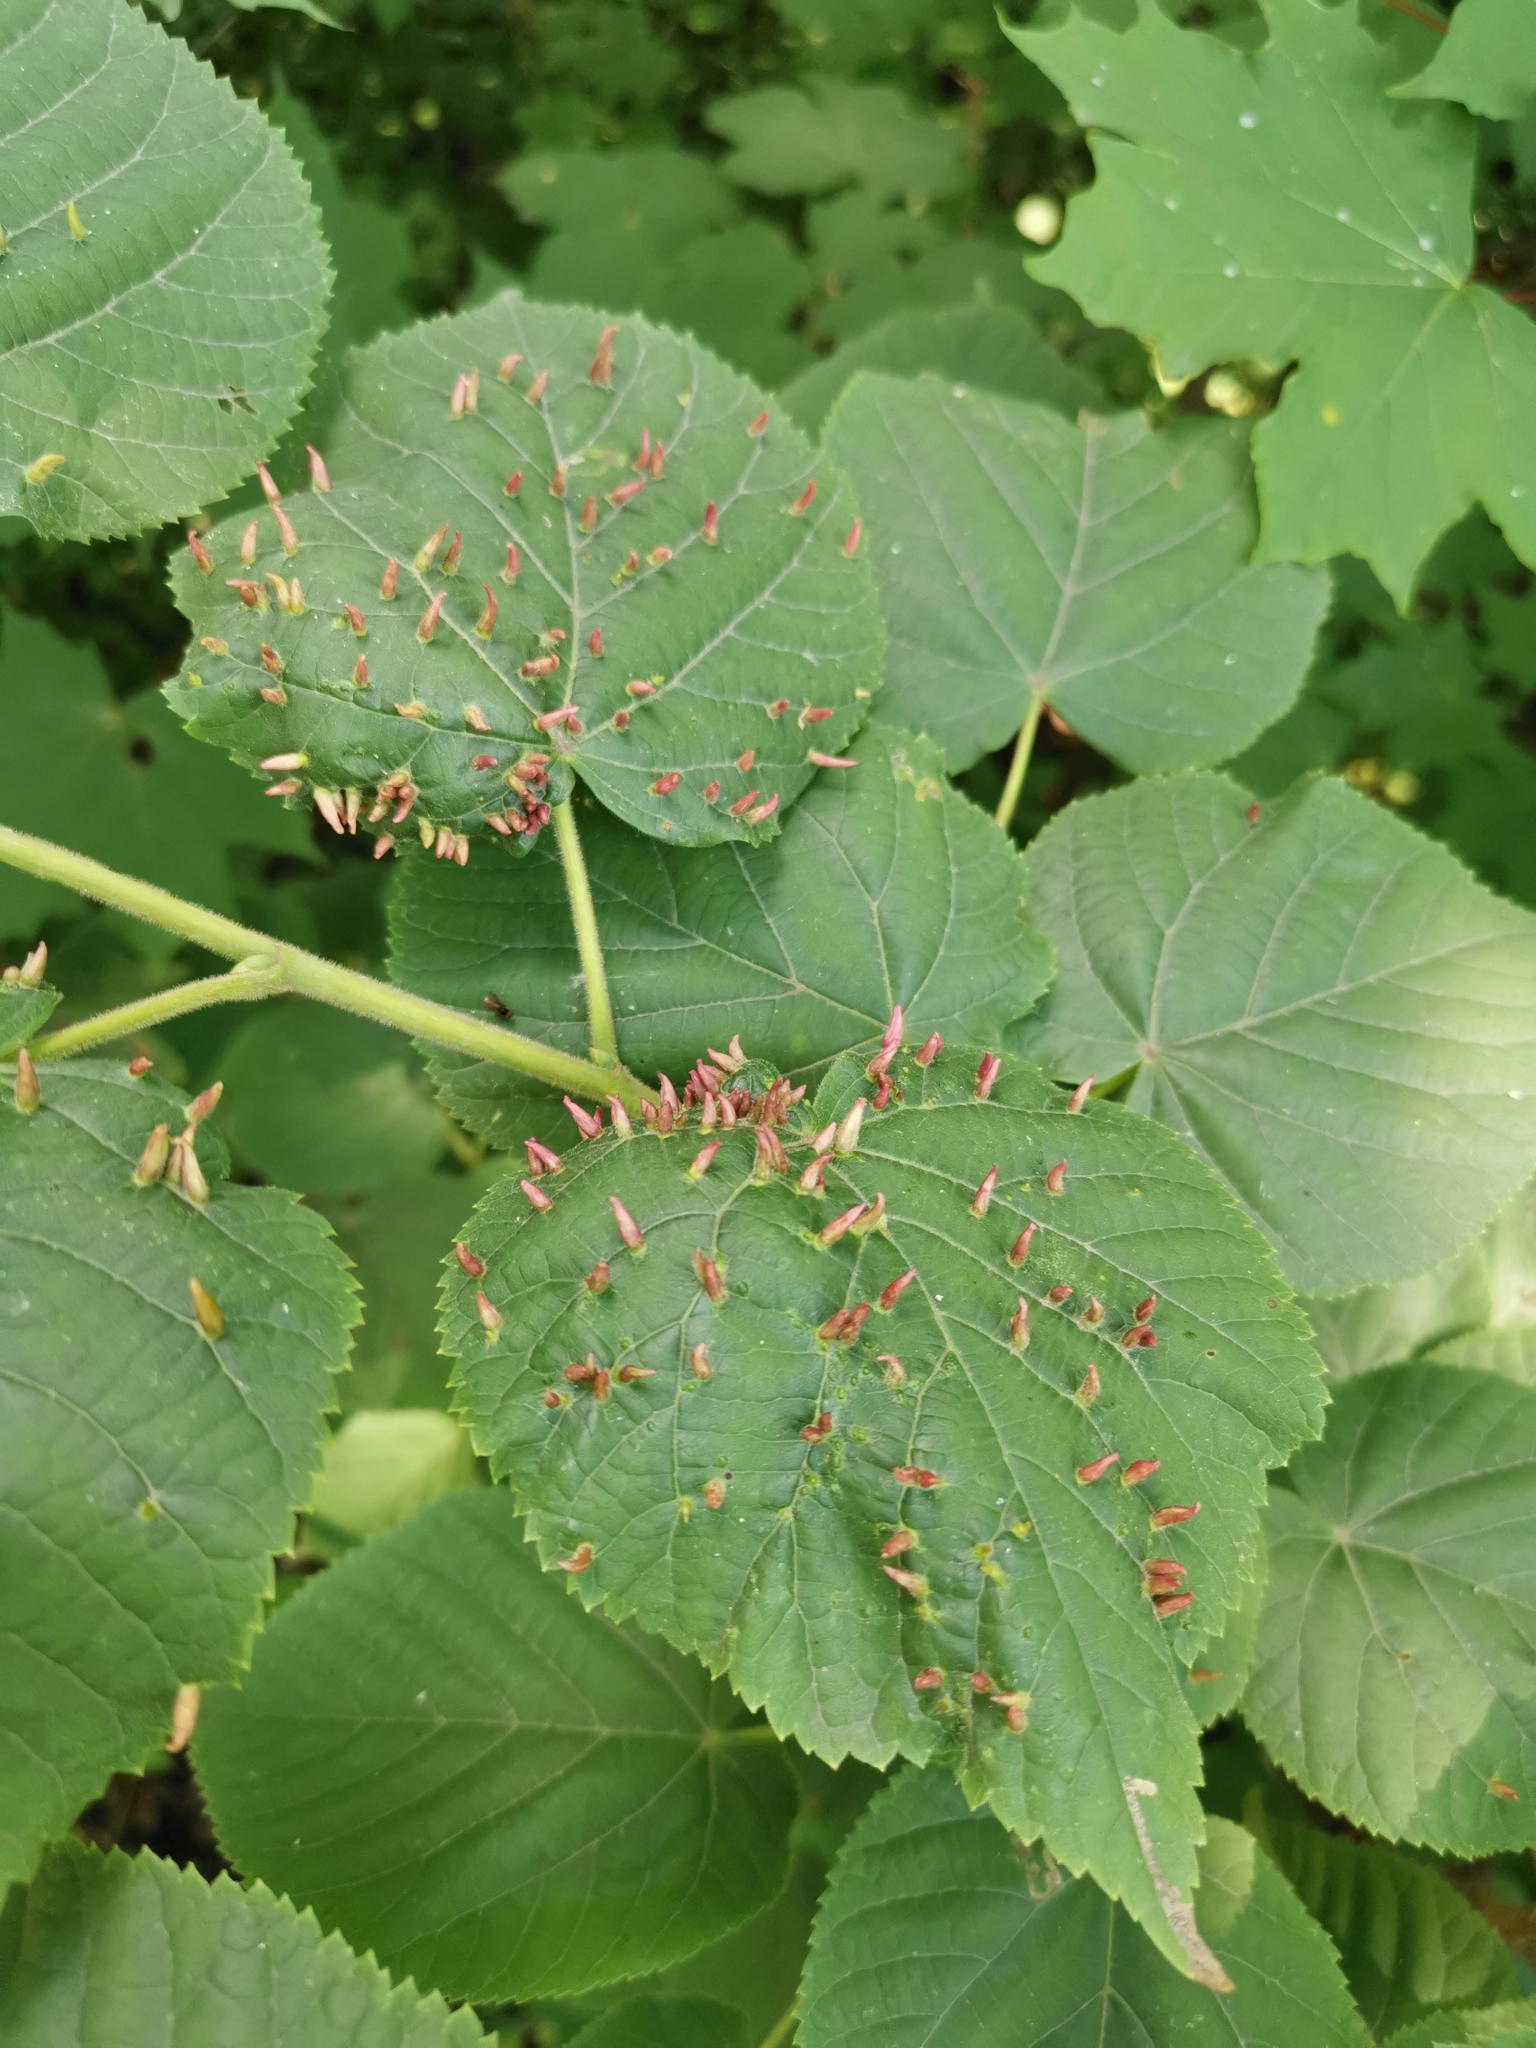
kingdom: Animalia
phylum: Arthropoda
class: Arachnida
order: Trombidiformes
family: Eriophyidae
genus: Eriophyes
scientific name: Eriophyes tiliae
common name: Red nail gall mite
